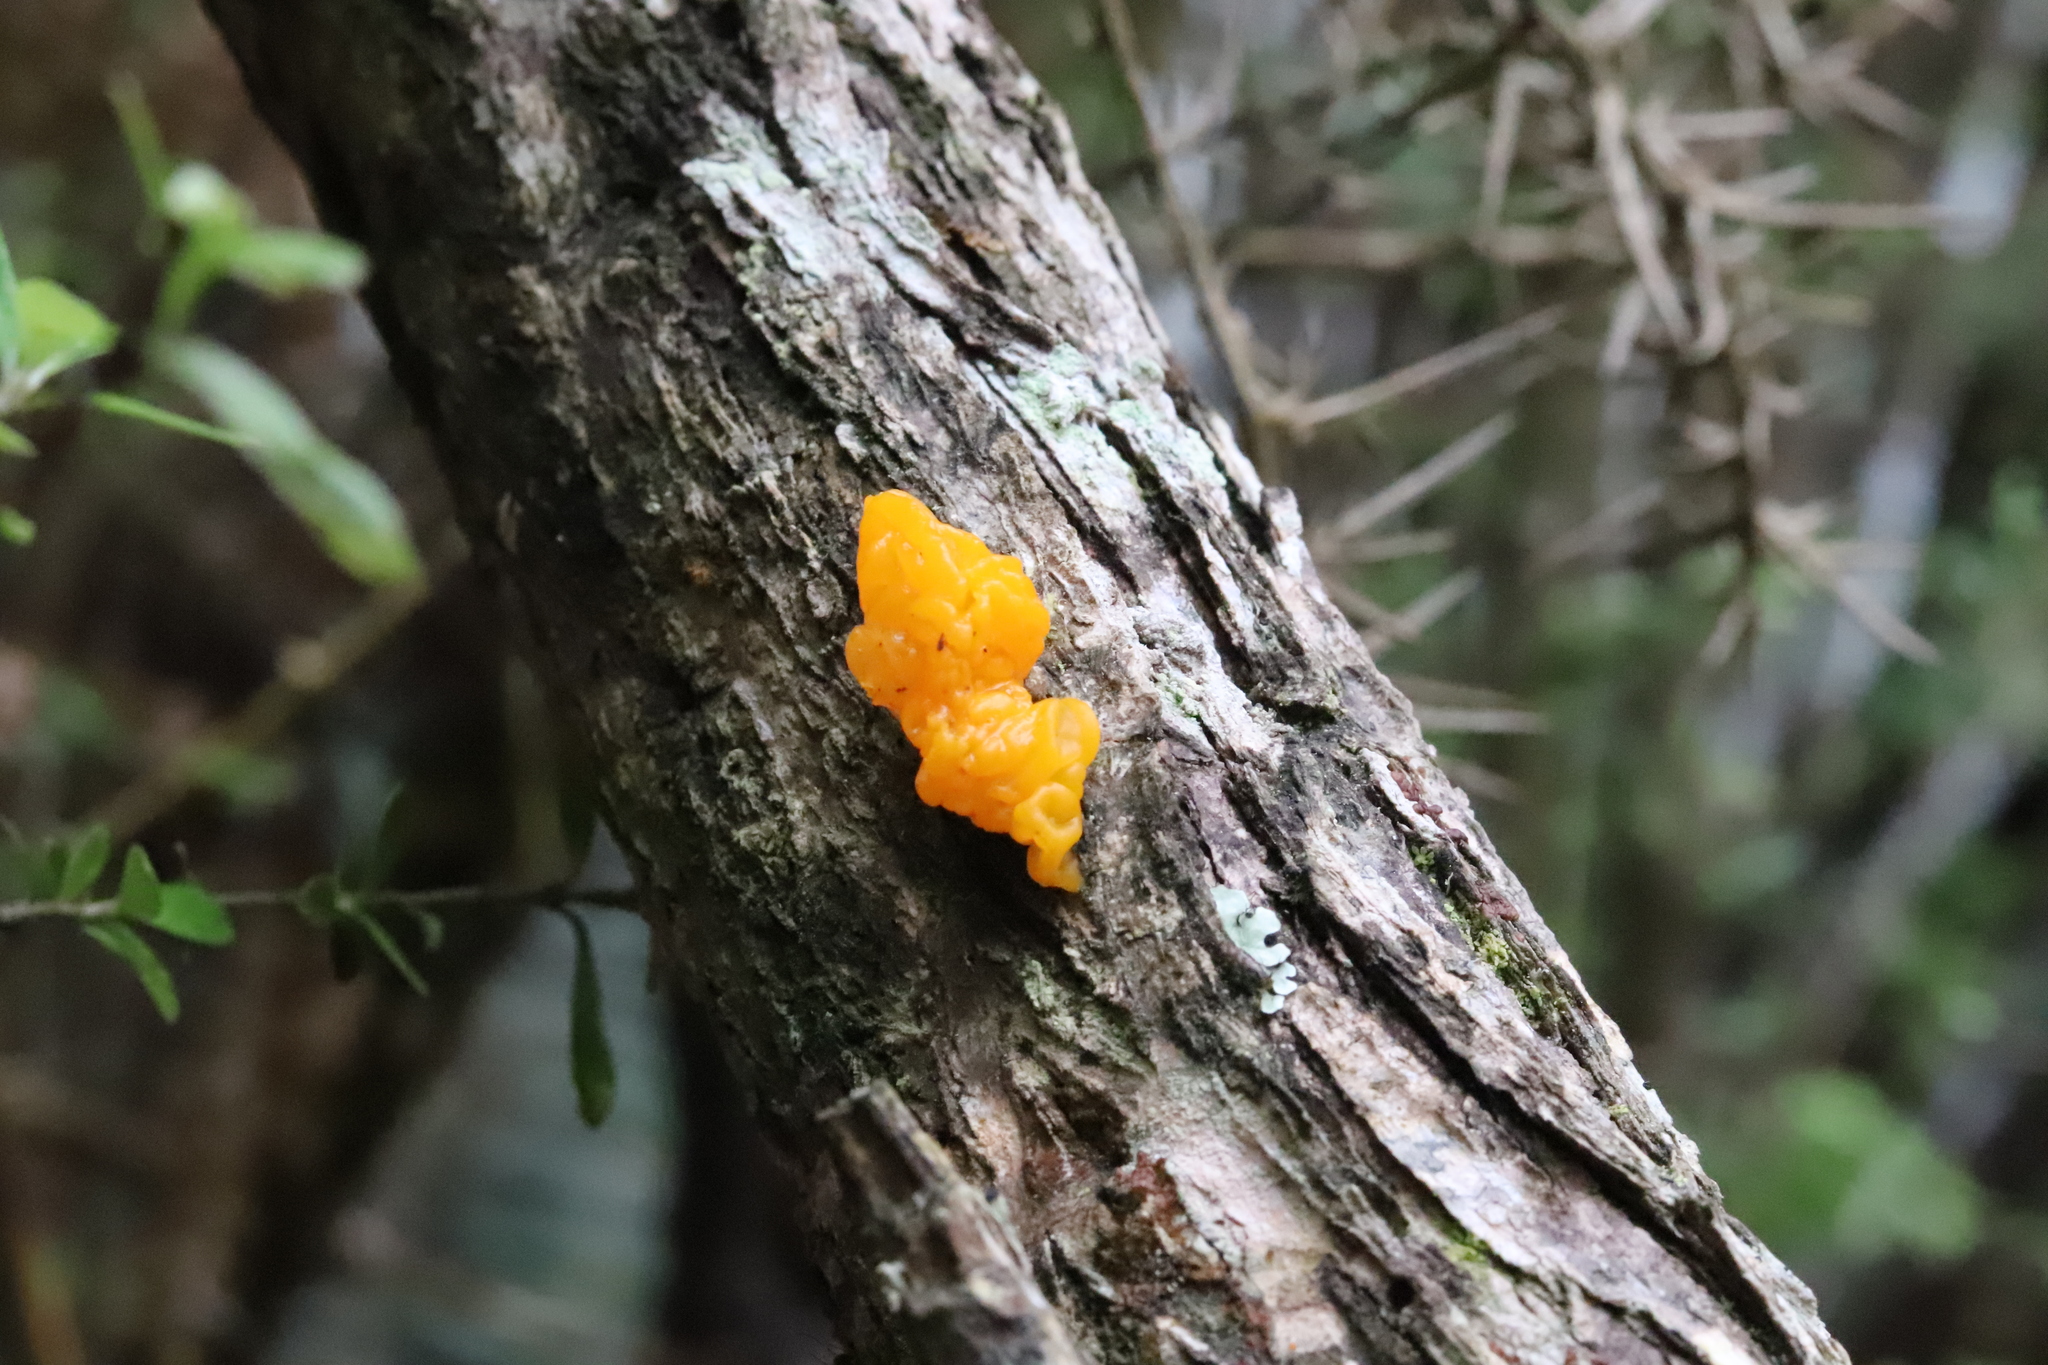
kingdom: Fungi
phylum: Basidiomycota
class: Tremellomycetes
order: Tremellales
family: Tremellaceae
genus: Tremella
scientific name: Tremella mesenterica
